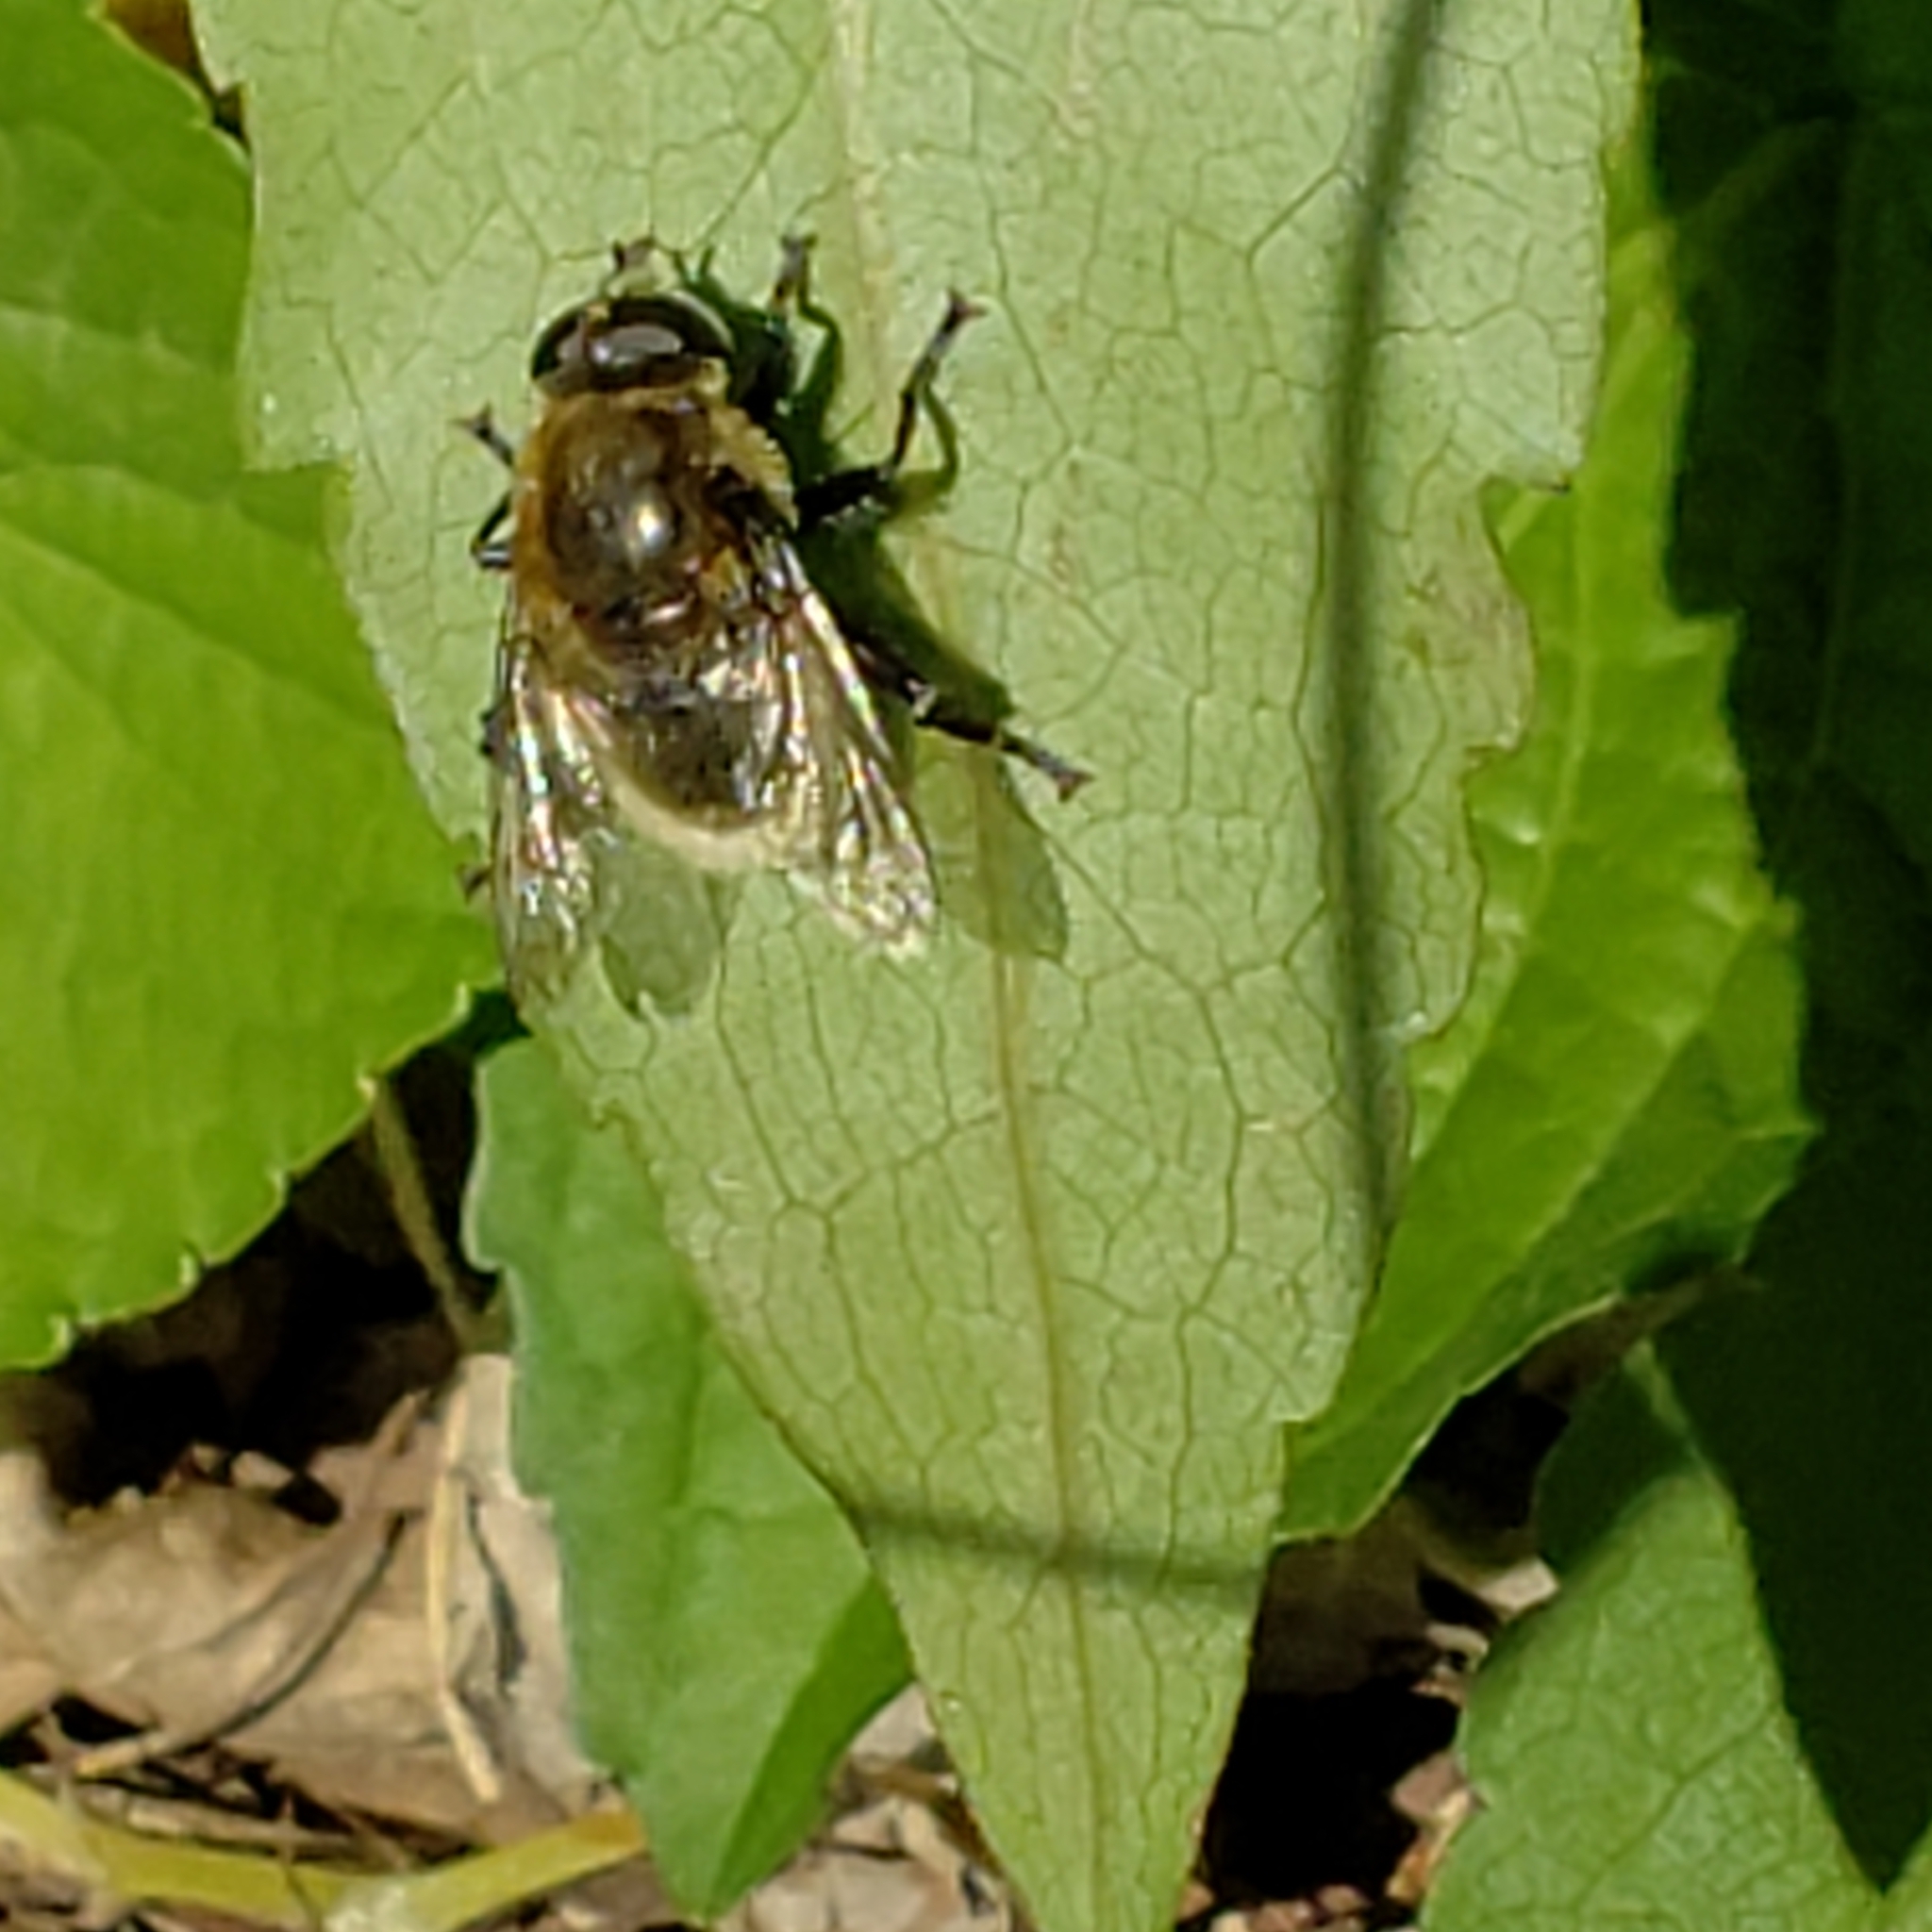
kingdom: Animalia
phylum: Arthropoda
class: Insecta
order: Diptera
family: Syrphidae
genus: Merodon
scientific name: Merodon equestris
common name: Greater bulb-fly
